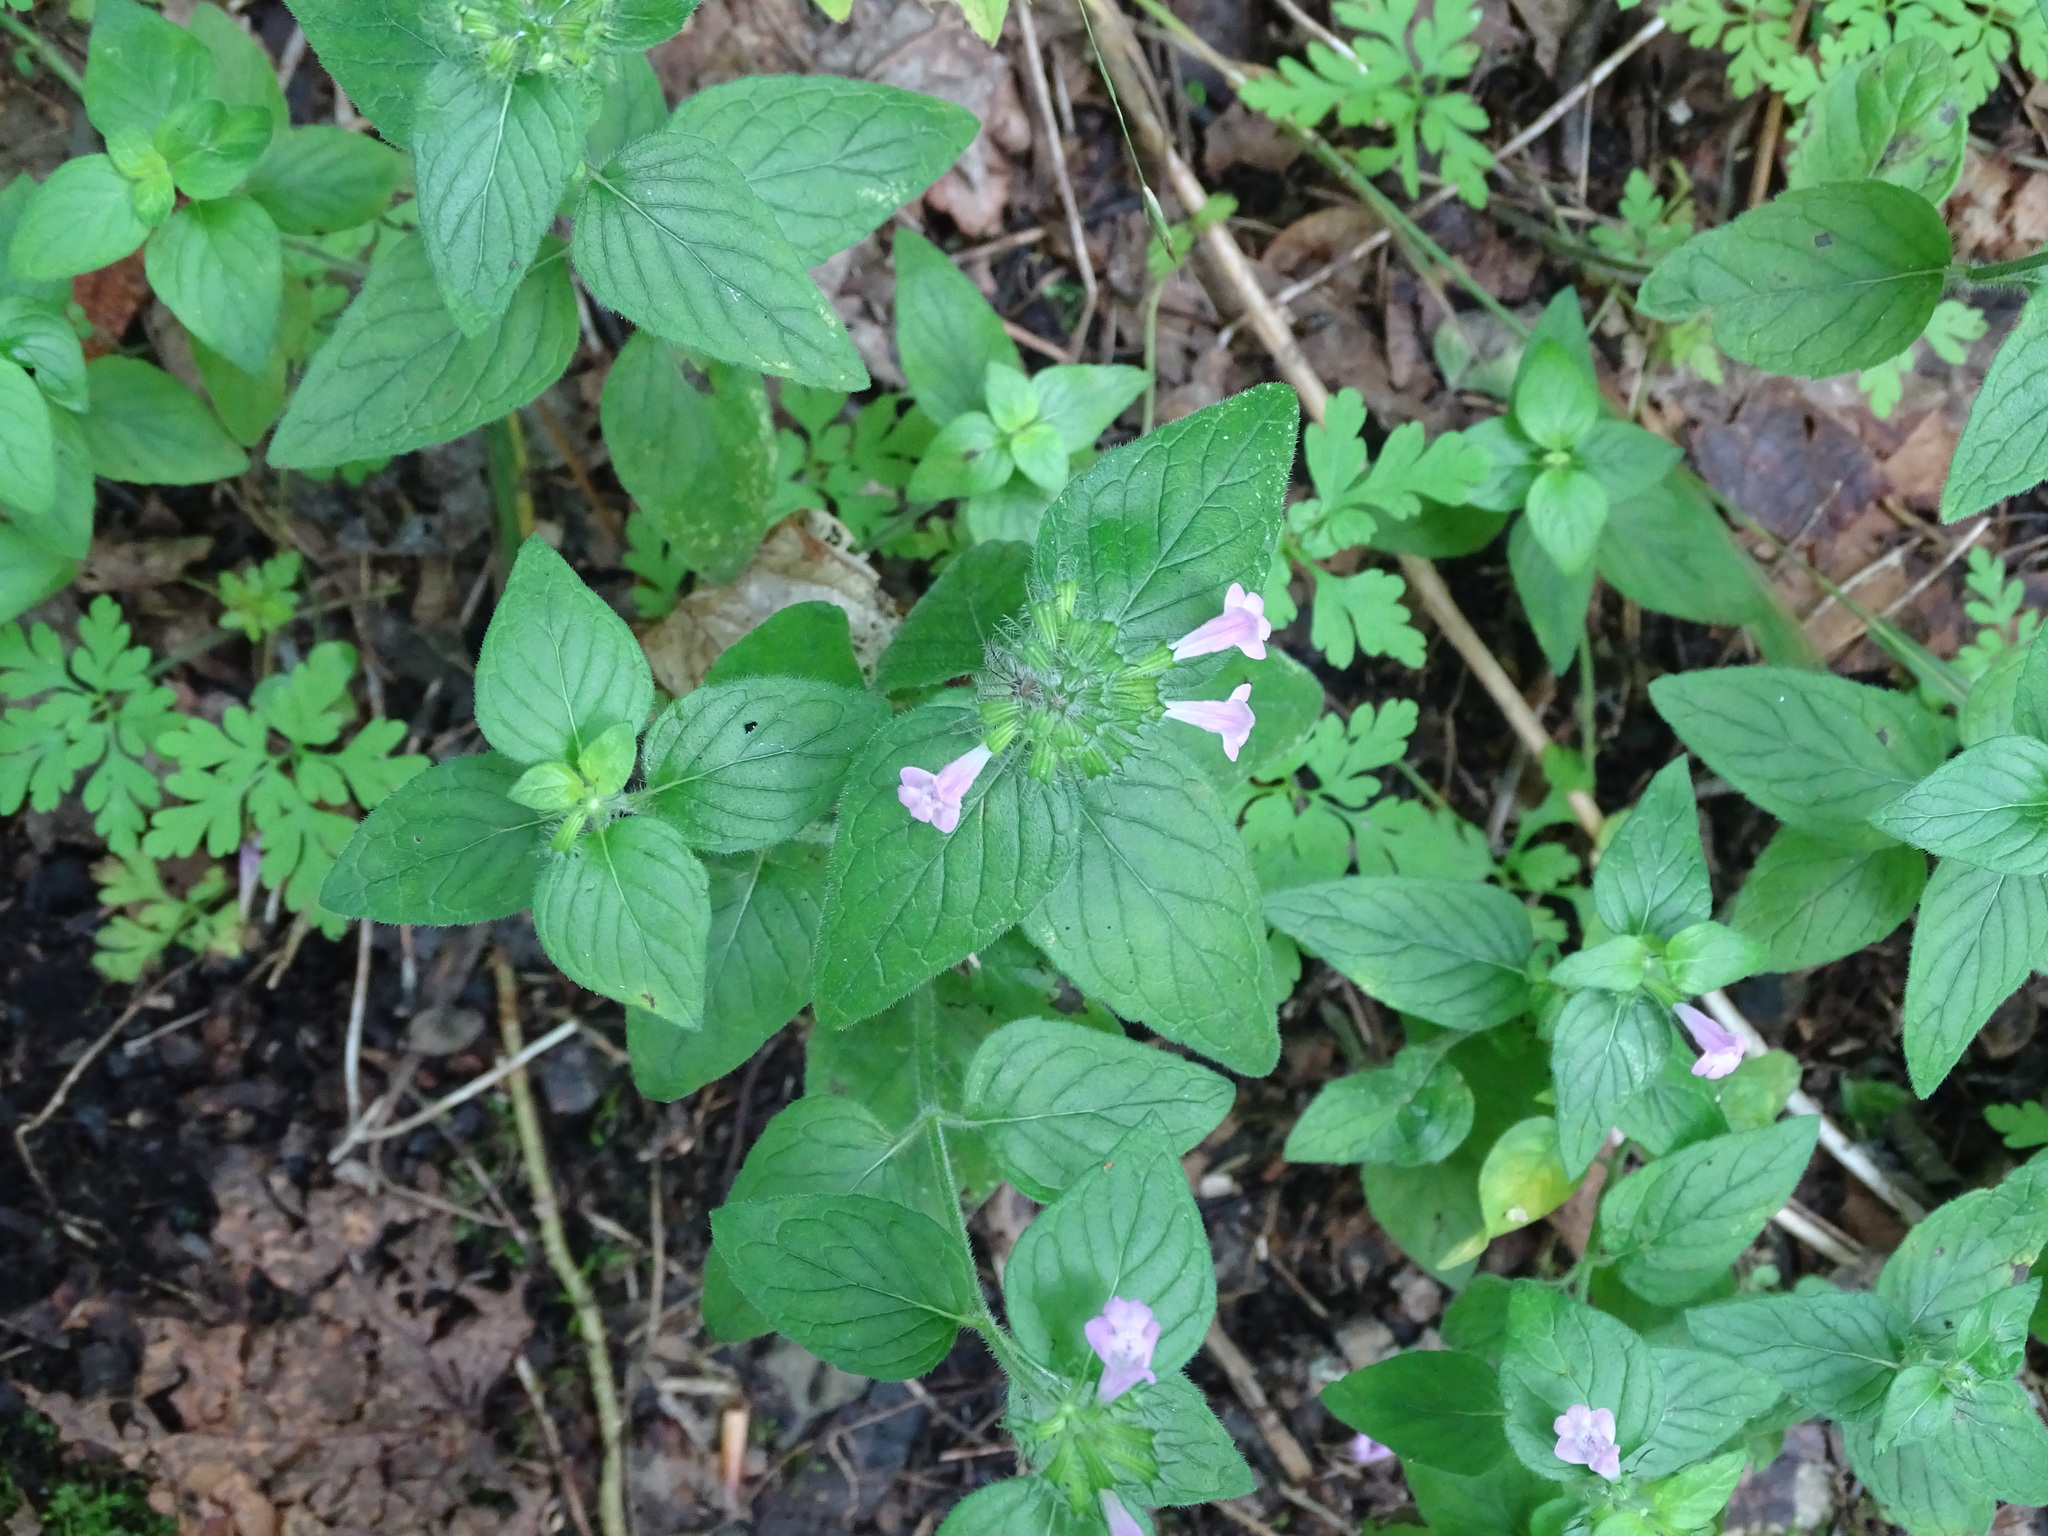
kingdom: Plantae
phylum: Tracheophyta
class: Magnoliopsida
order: Lamiales
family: Lamiaceae
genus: Clinopodium
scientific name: Clinopodium vulgare
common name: Wild basil
